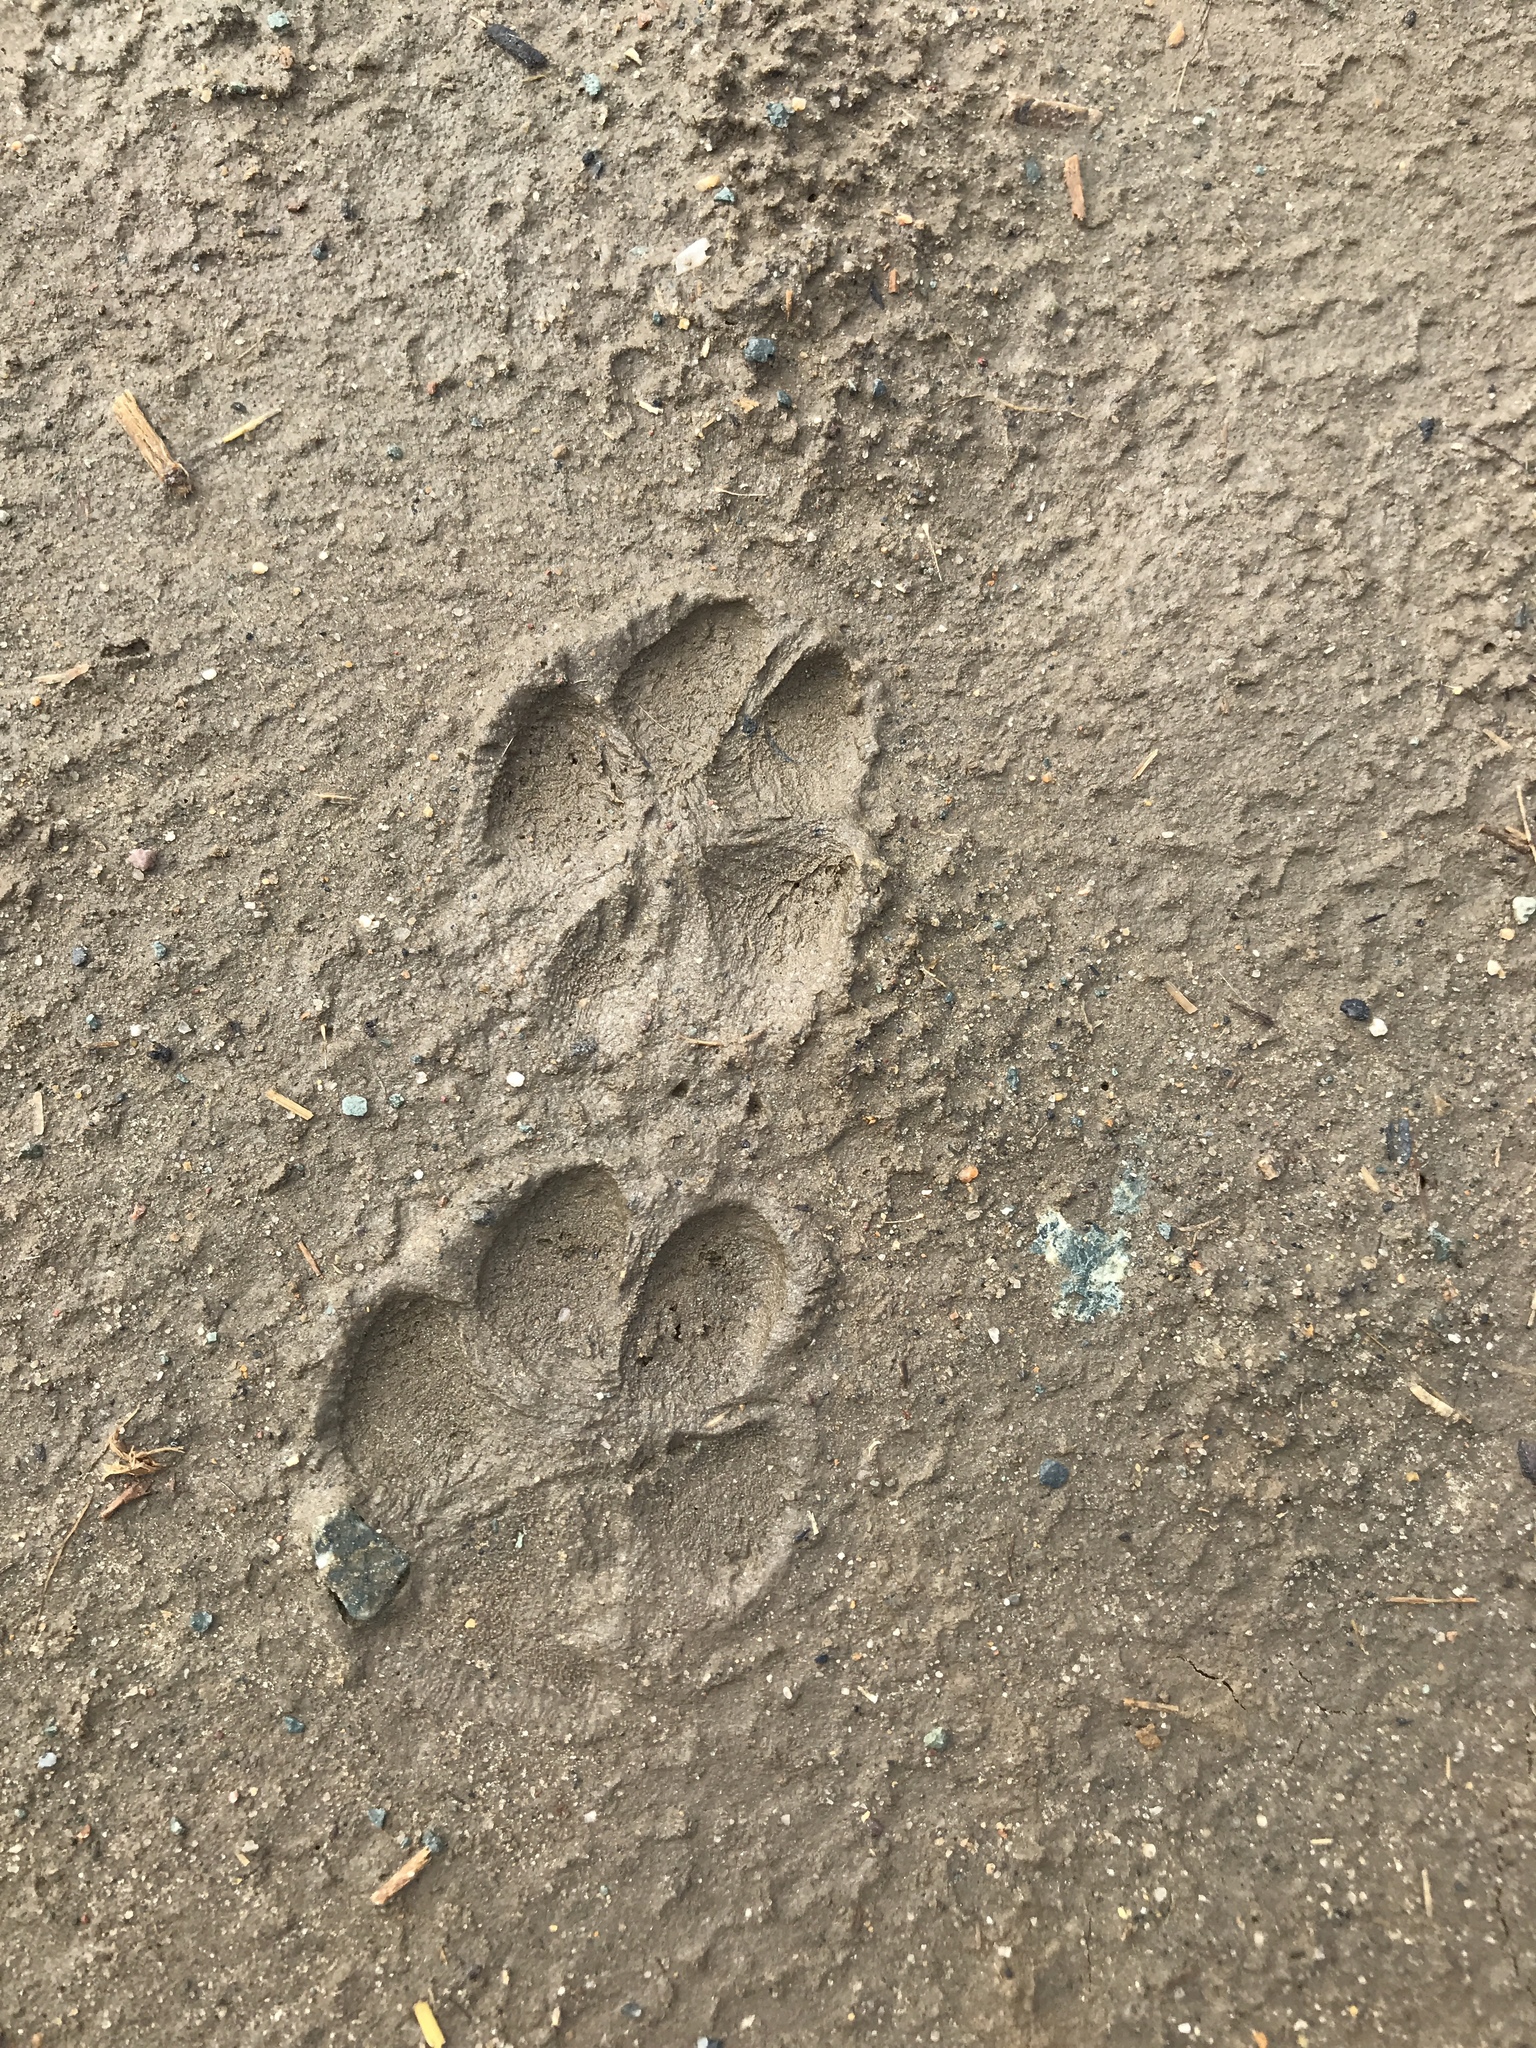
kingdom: Animalia
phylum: Chordata
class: Mammalia
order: Carnivora
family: Canidae
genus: Canis
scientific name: Canis latrans
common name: Coyote
